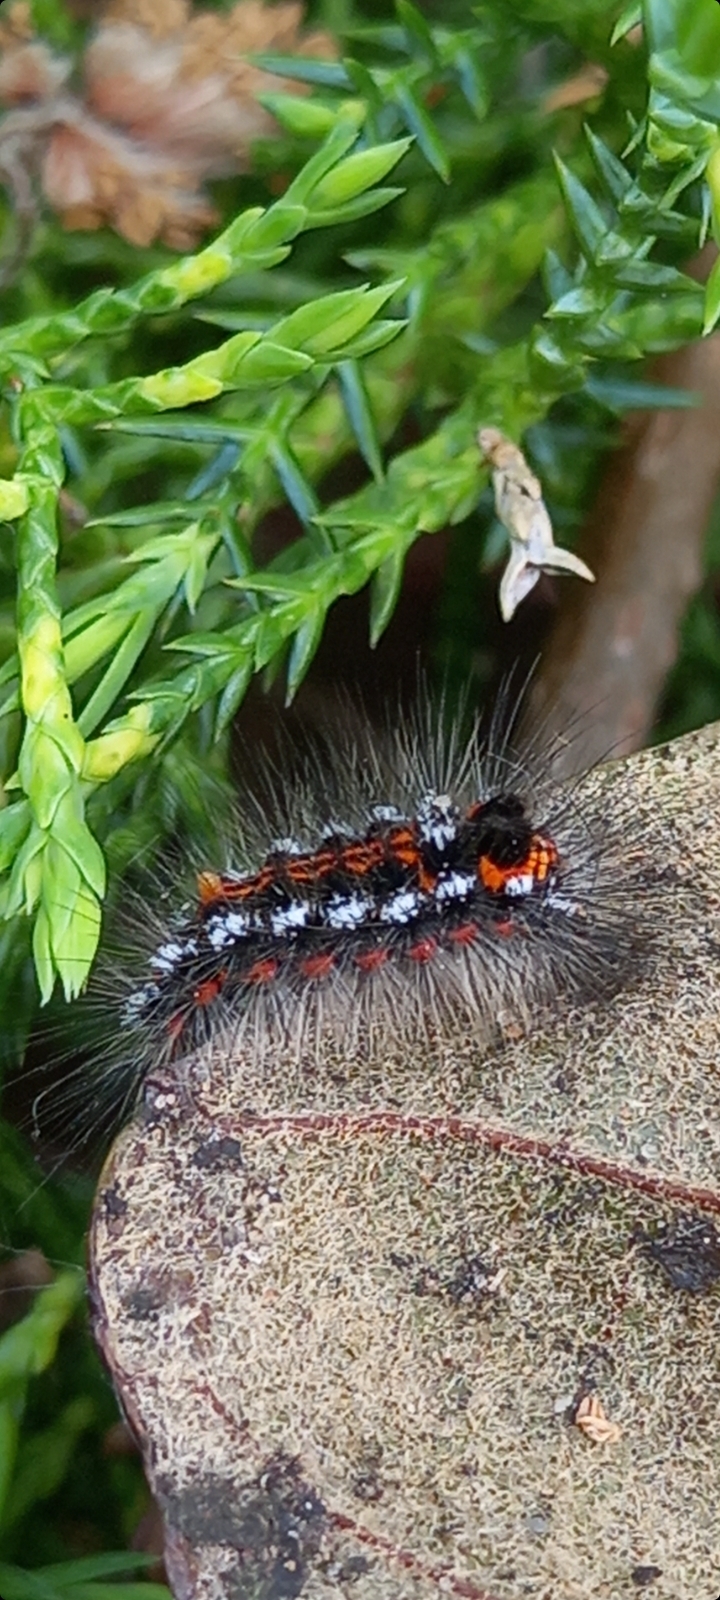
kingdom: Animalia
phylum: Arthropoda
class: Insecta
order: Lepidoptera
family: Erebidae
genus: Sphrageidus
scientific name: Sphrageidus similis
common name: Yellow-tail
